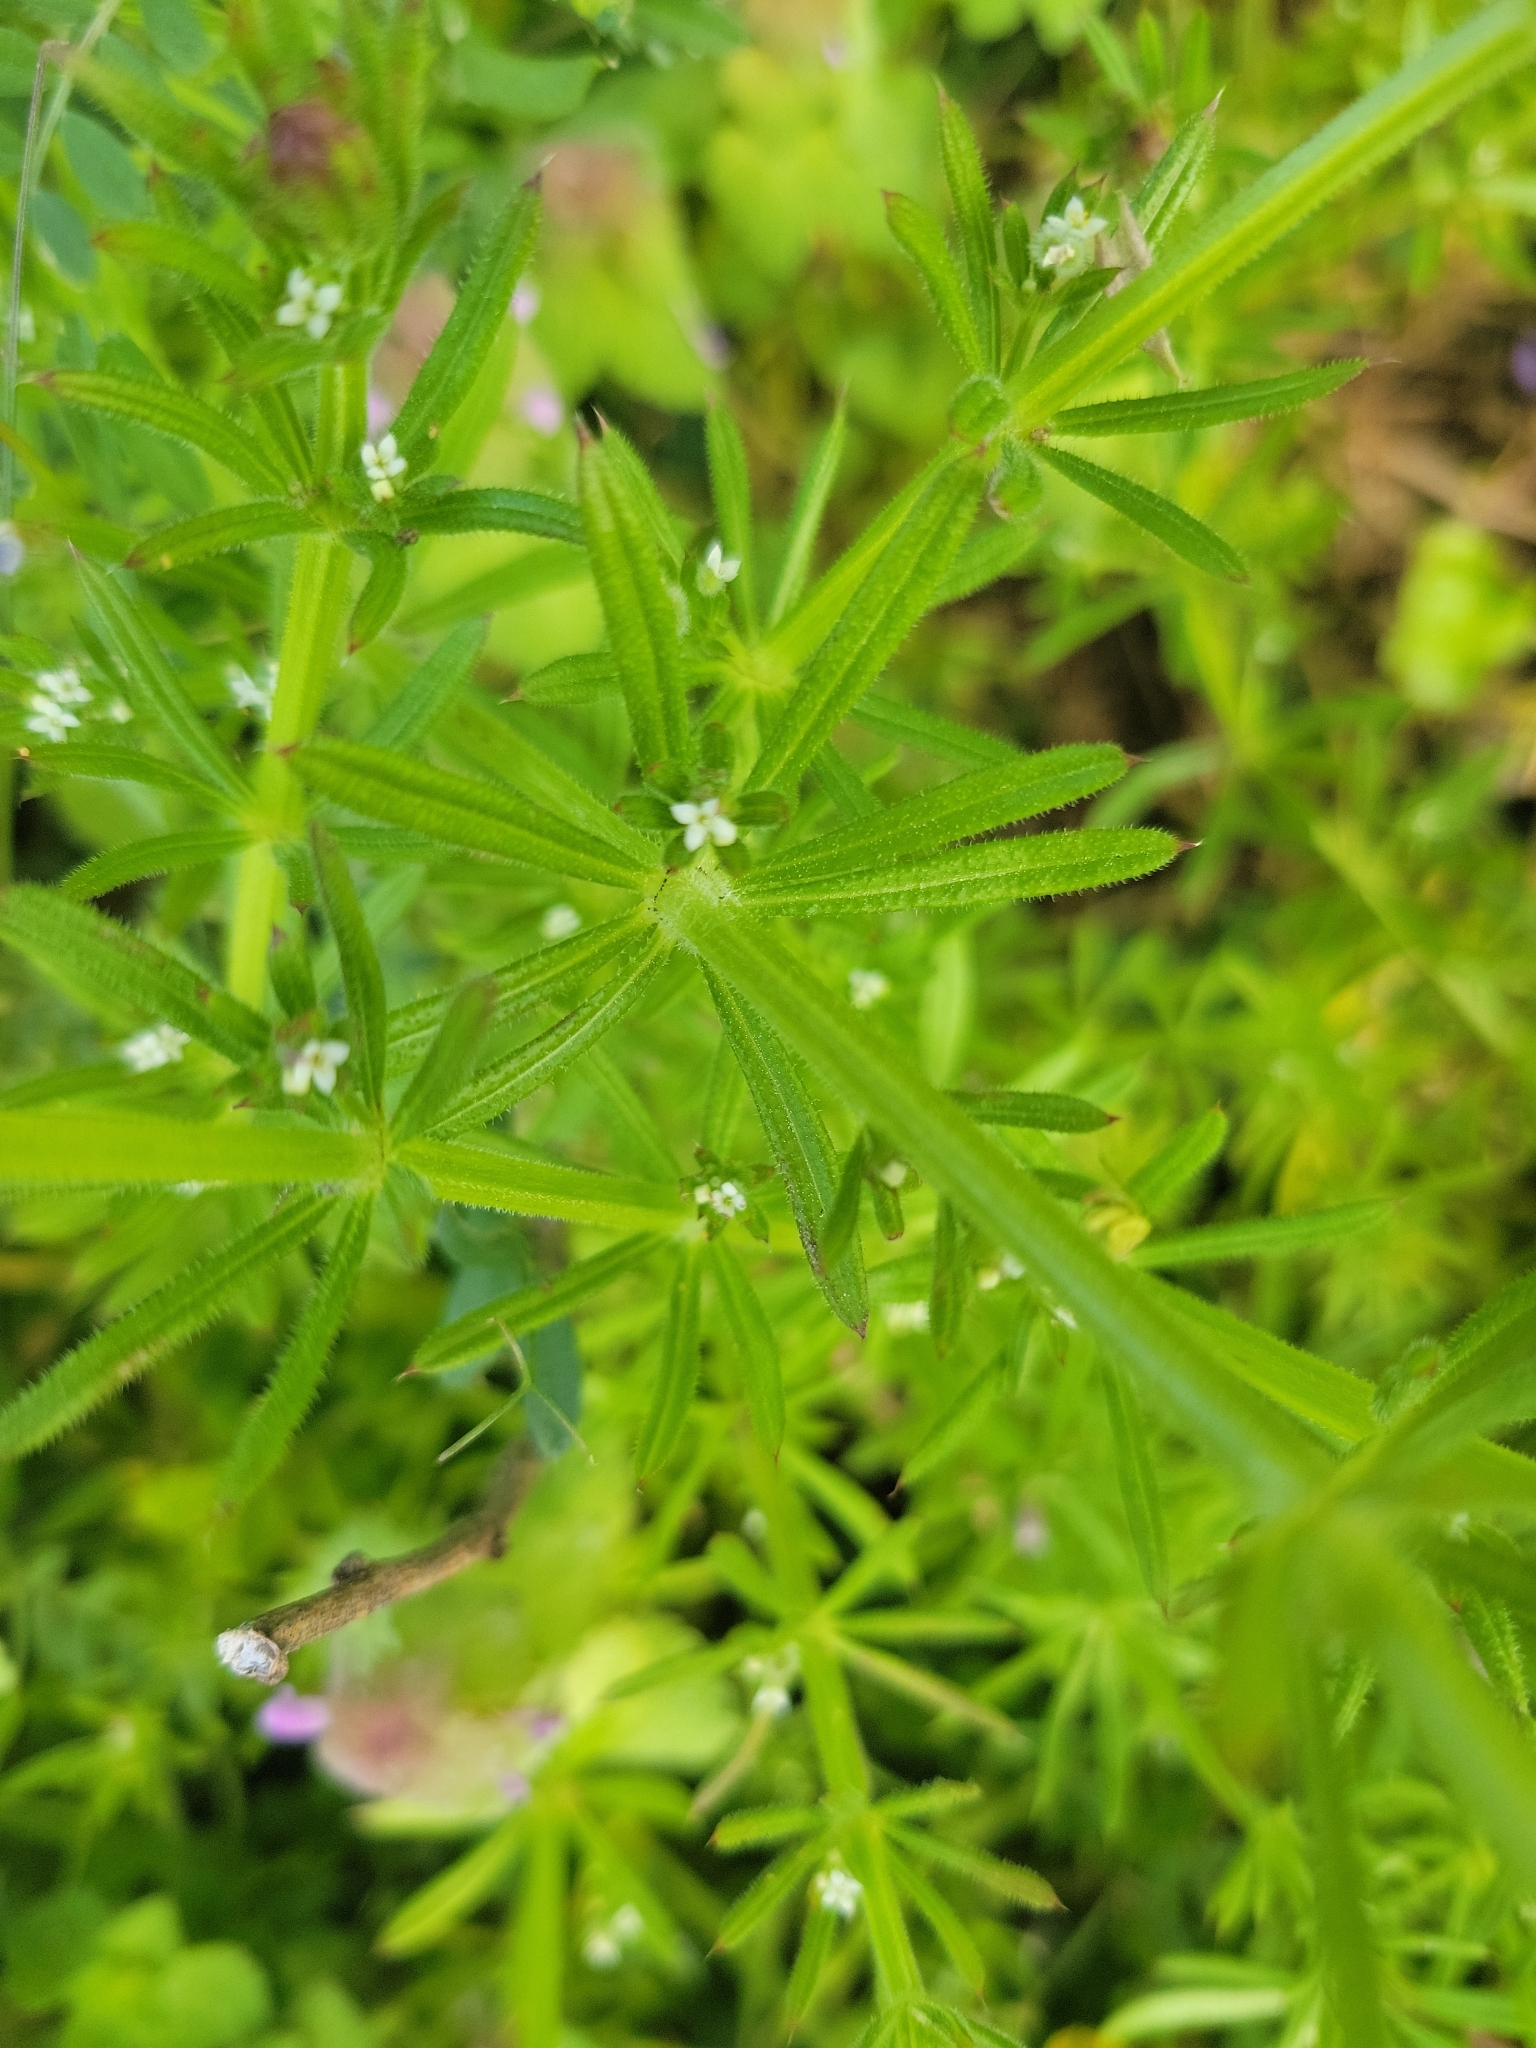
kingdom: Plantae
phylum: Tracheophyta
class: Magnoliopsida
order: Gentianales
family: Rubiaceae
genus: Galium
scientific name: Galium aparine
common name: Cleavers
